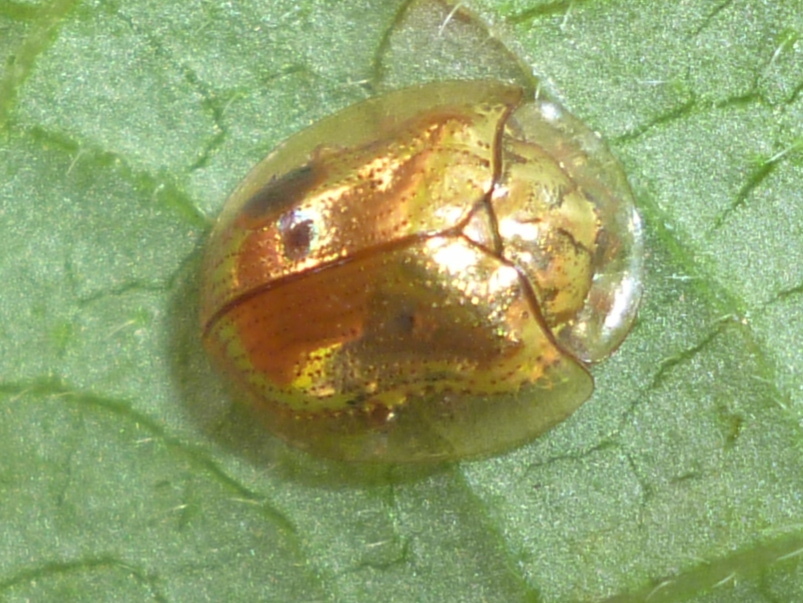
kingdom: Animalia
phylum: Arthropoda
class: Insecta
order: Coleoptera
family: Chrysomelidae
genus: Charidotella
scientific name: Charidotella sexpunctata
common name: Golden tortoise beetle
